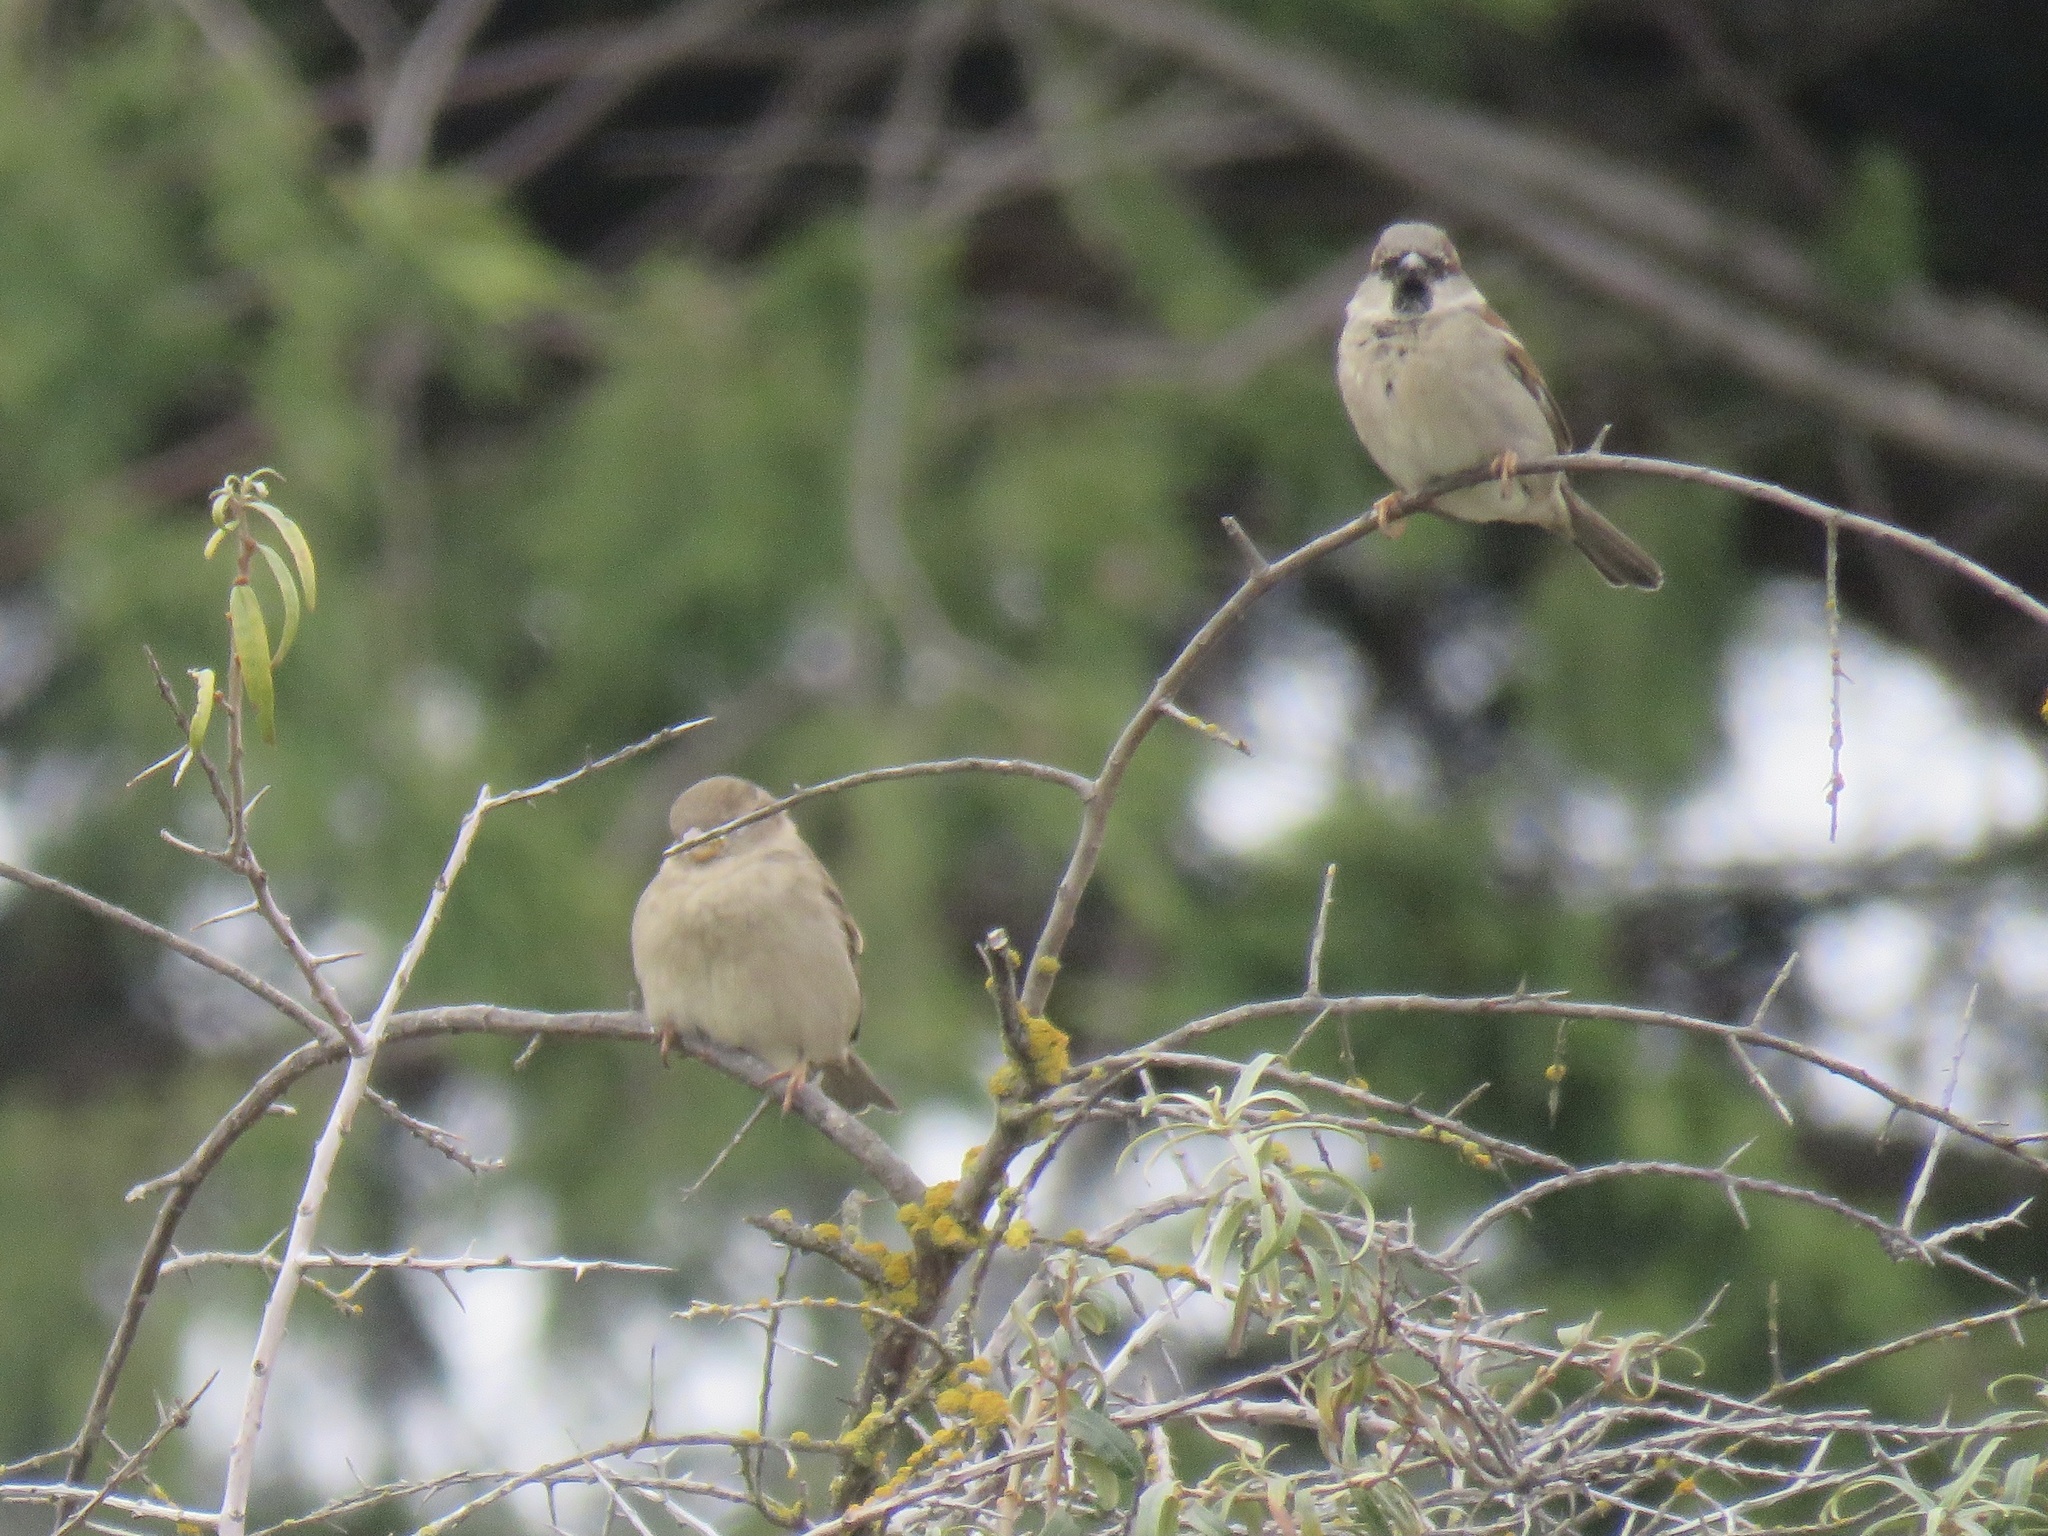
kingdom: Animalia
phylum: Chordata
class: Aves
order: Passeriformes
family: Passeridae
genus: Passer
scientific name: Passer domesticus
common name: House sparrow
